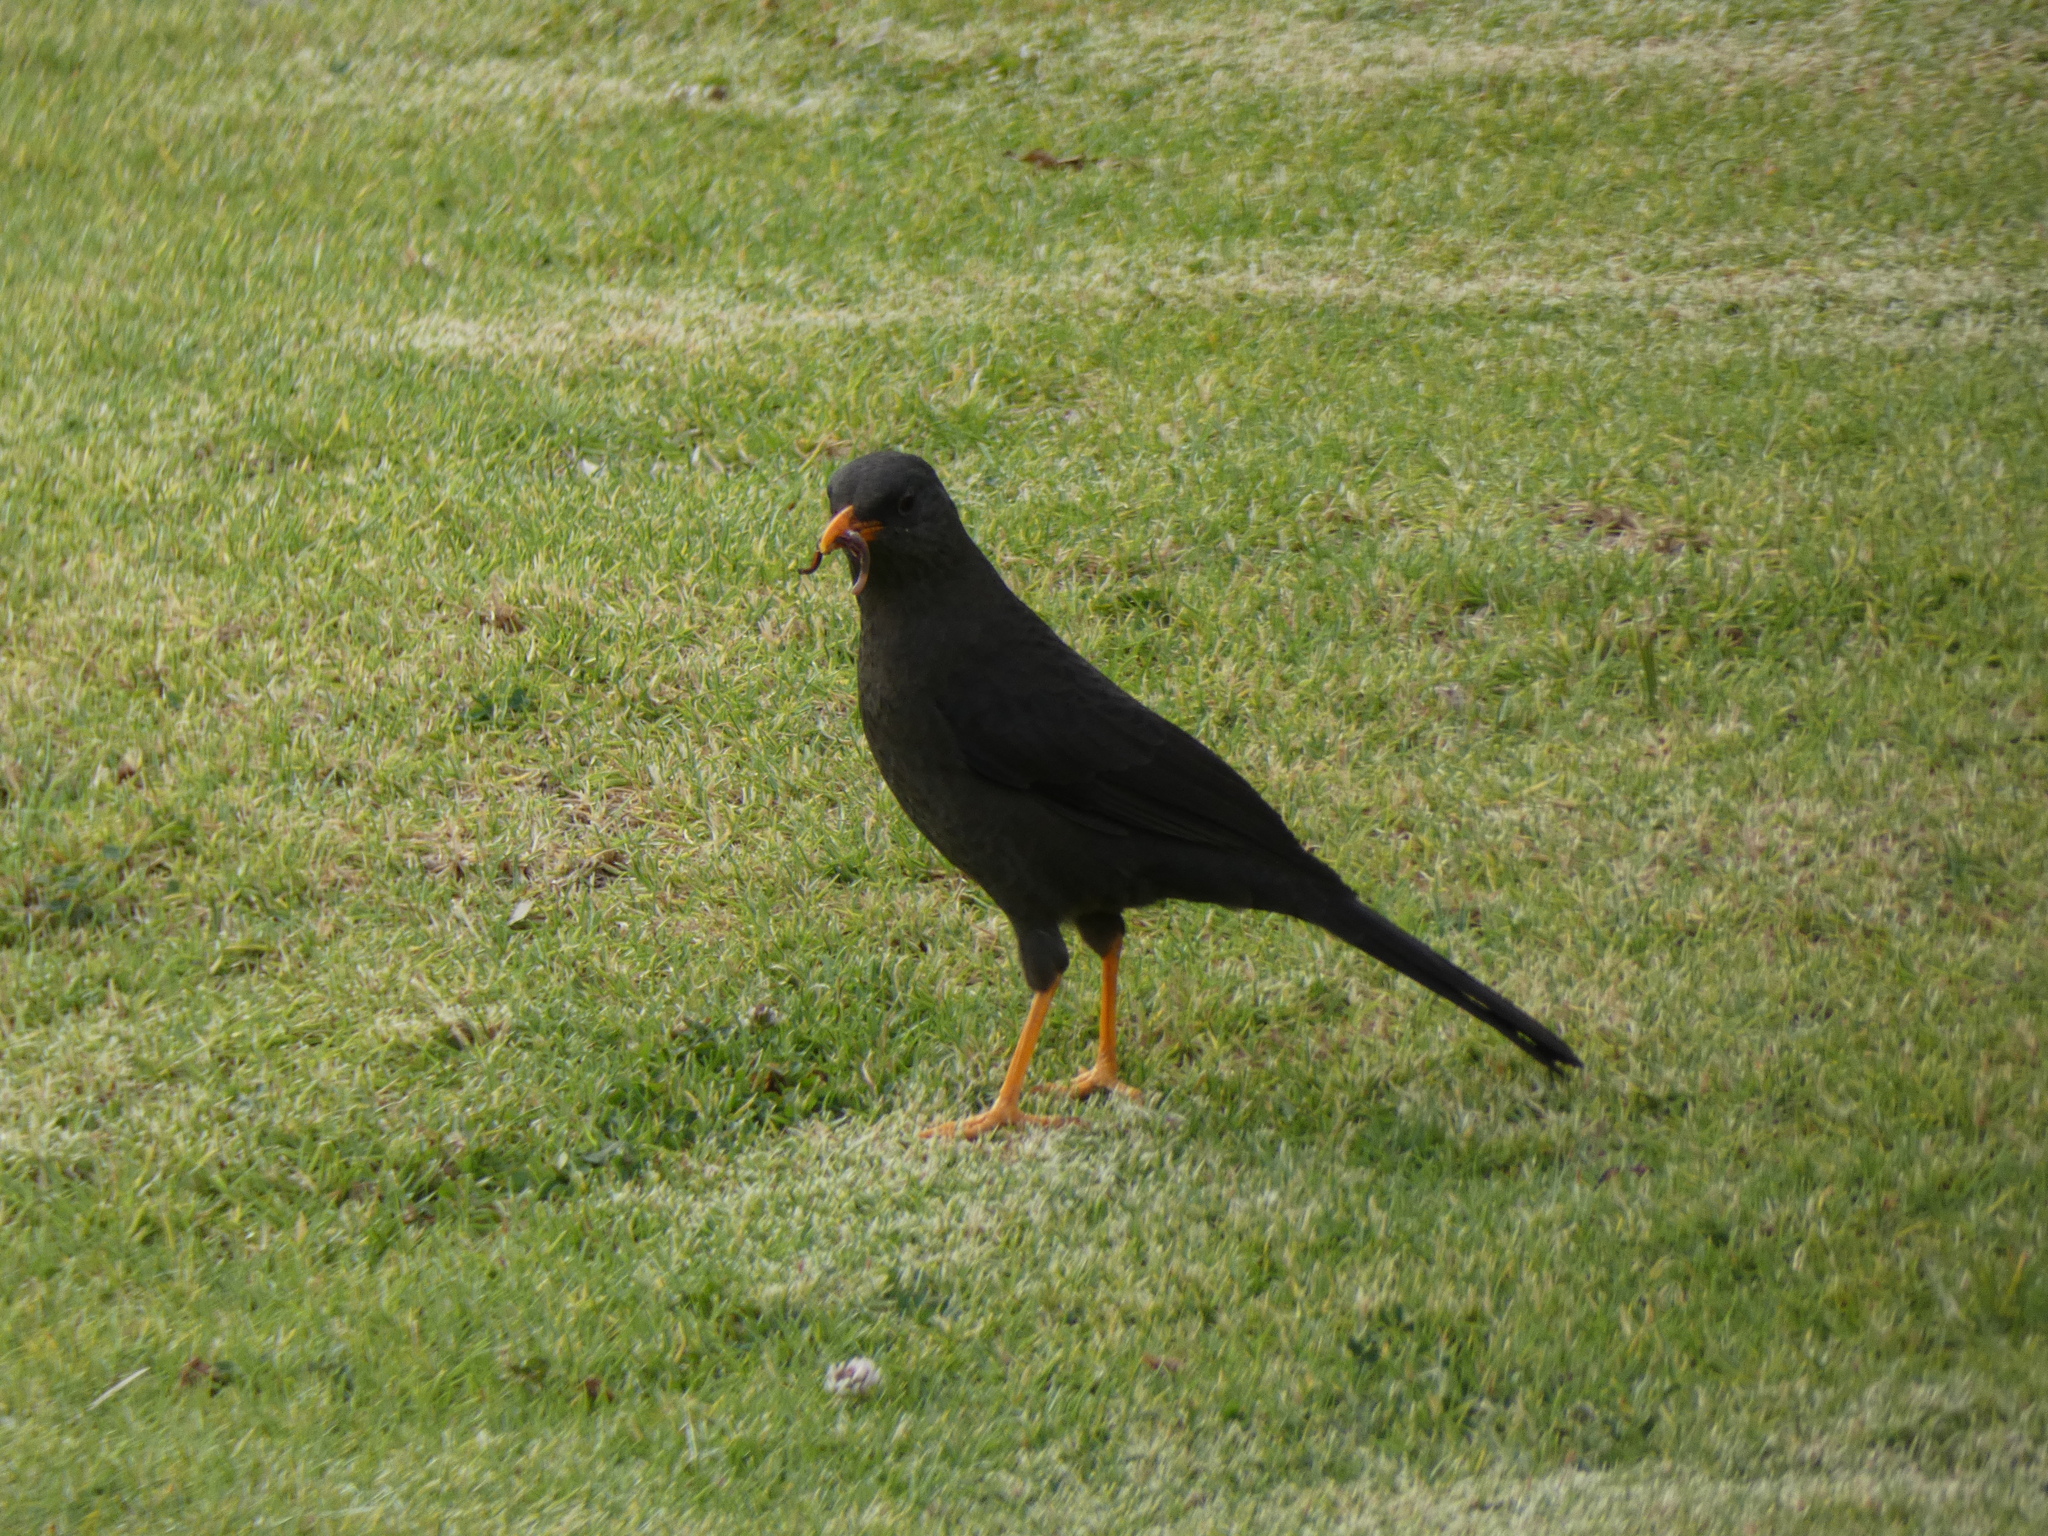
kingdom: Animalia
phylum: Chordata
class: Aves
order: Passeriformes
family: Turdidae
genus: Turdus
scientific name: Turdus fuscater
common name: Great thrush
